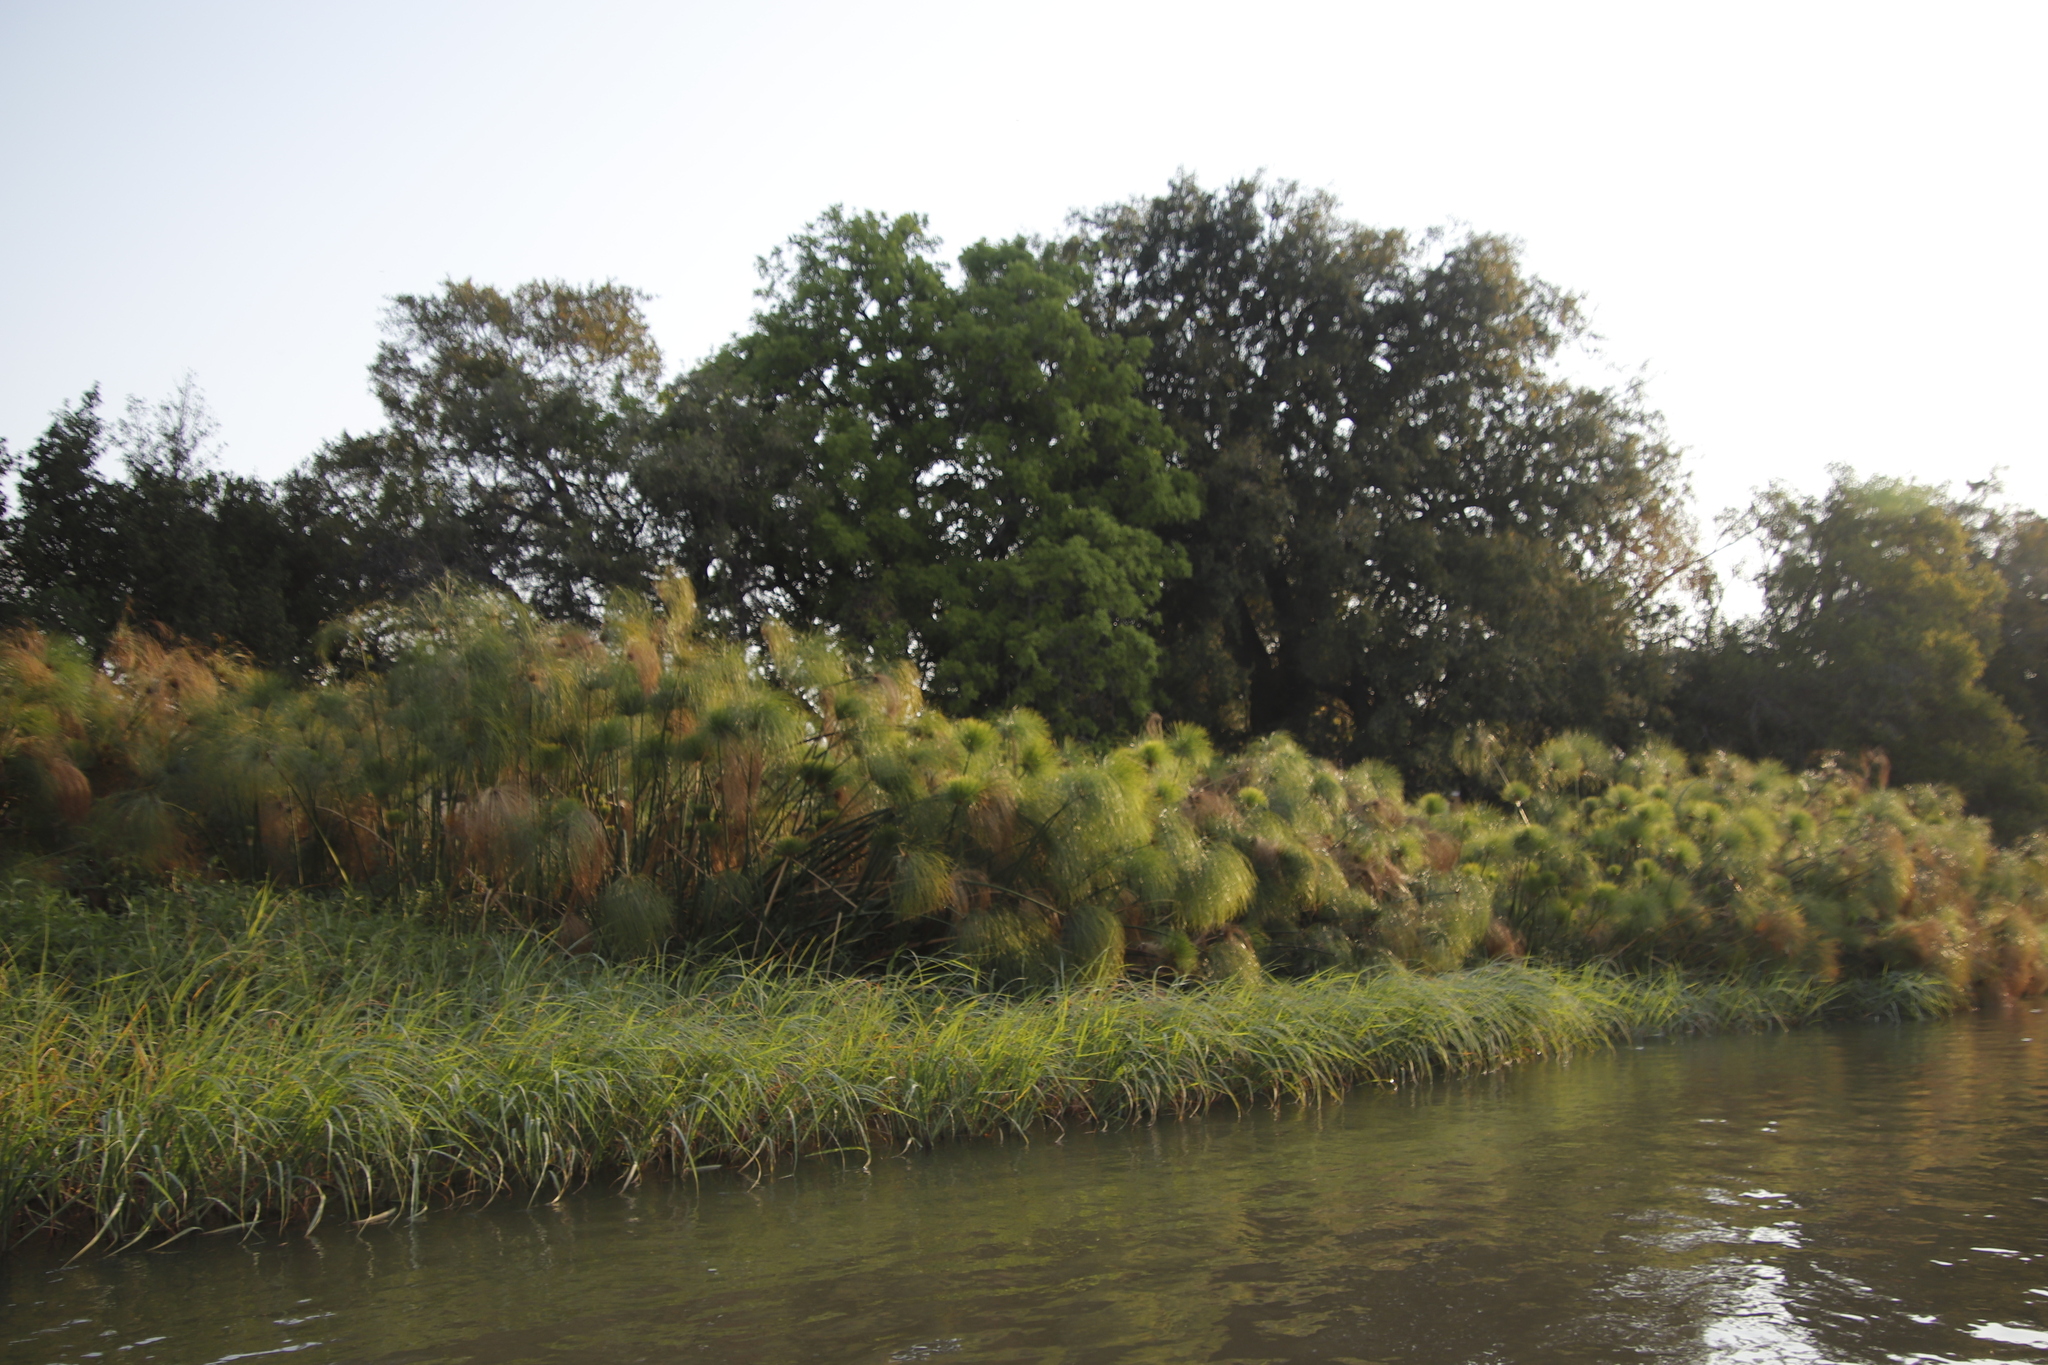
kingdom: Plantae
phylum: Tracheophyta
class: Liliopsida
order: Poales
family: Cyperaceae
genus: Cyperus
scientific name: Cyperus papyrus
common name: Papyrus
